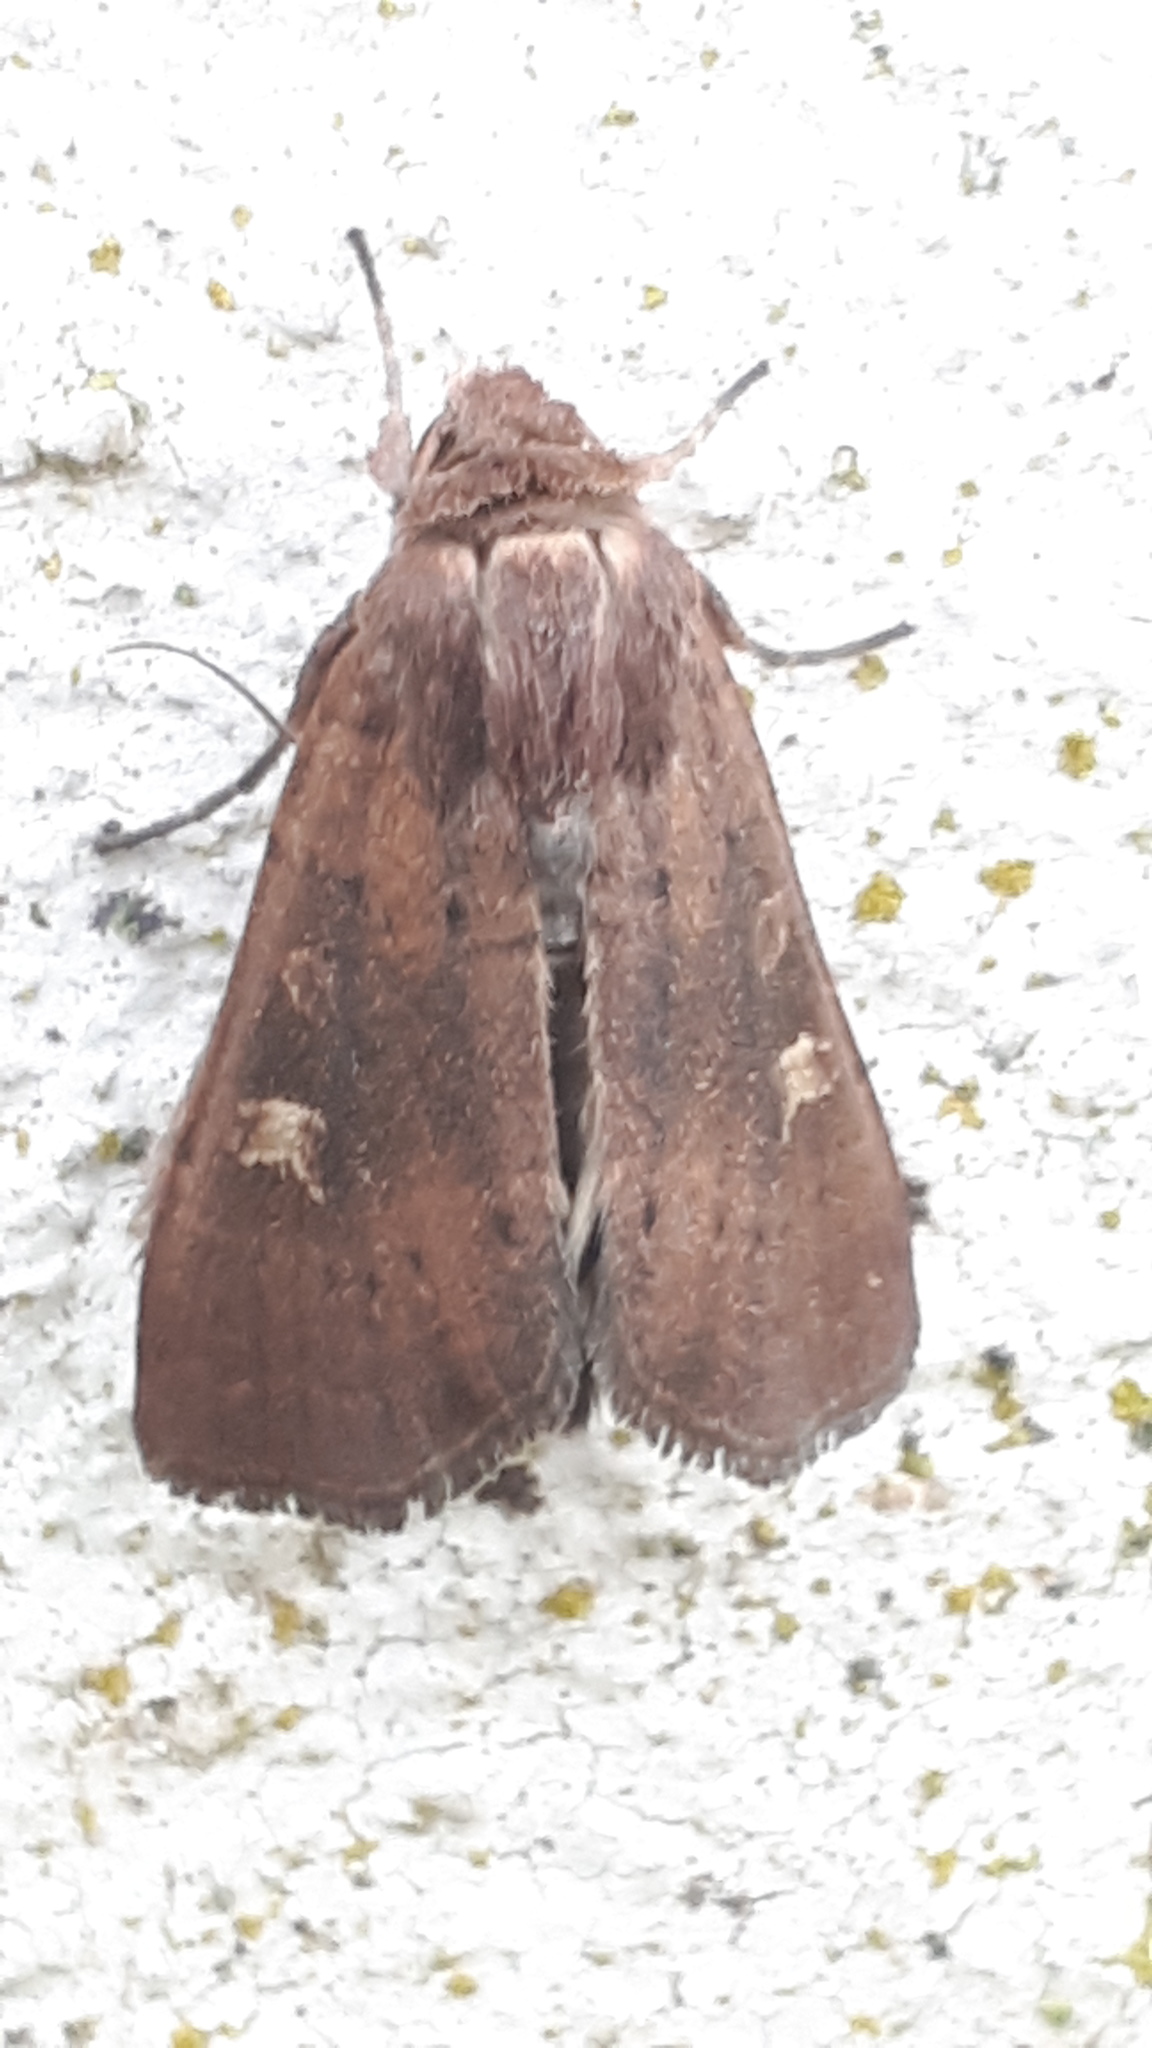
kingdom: Animalia
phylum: Arthropoda
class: Insecta
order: Lepidoptera
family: Noctuidae
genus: Xestia
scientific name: Xestia xanthographa
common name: Square-spot rustic
